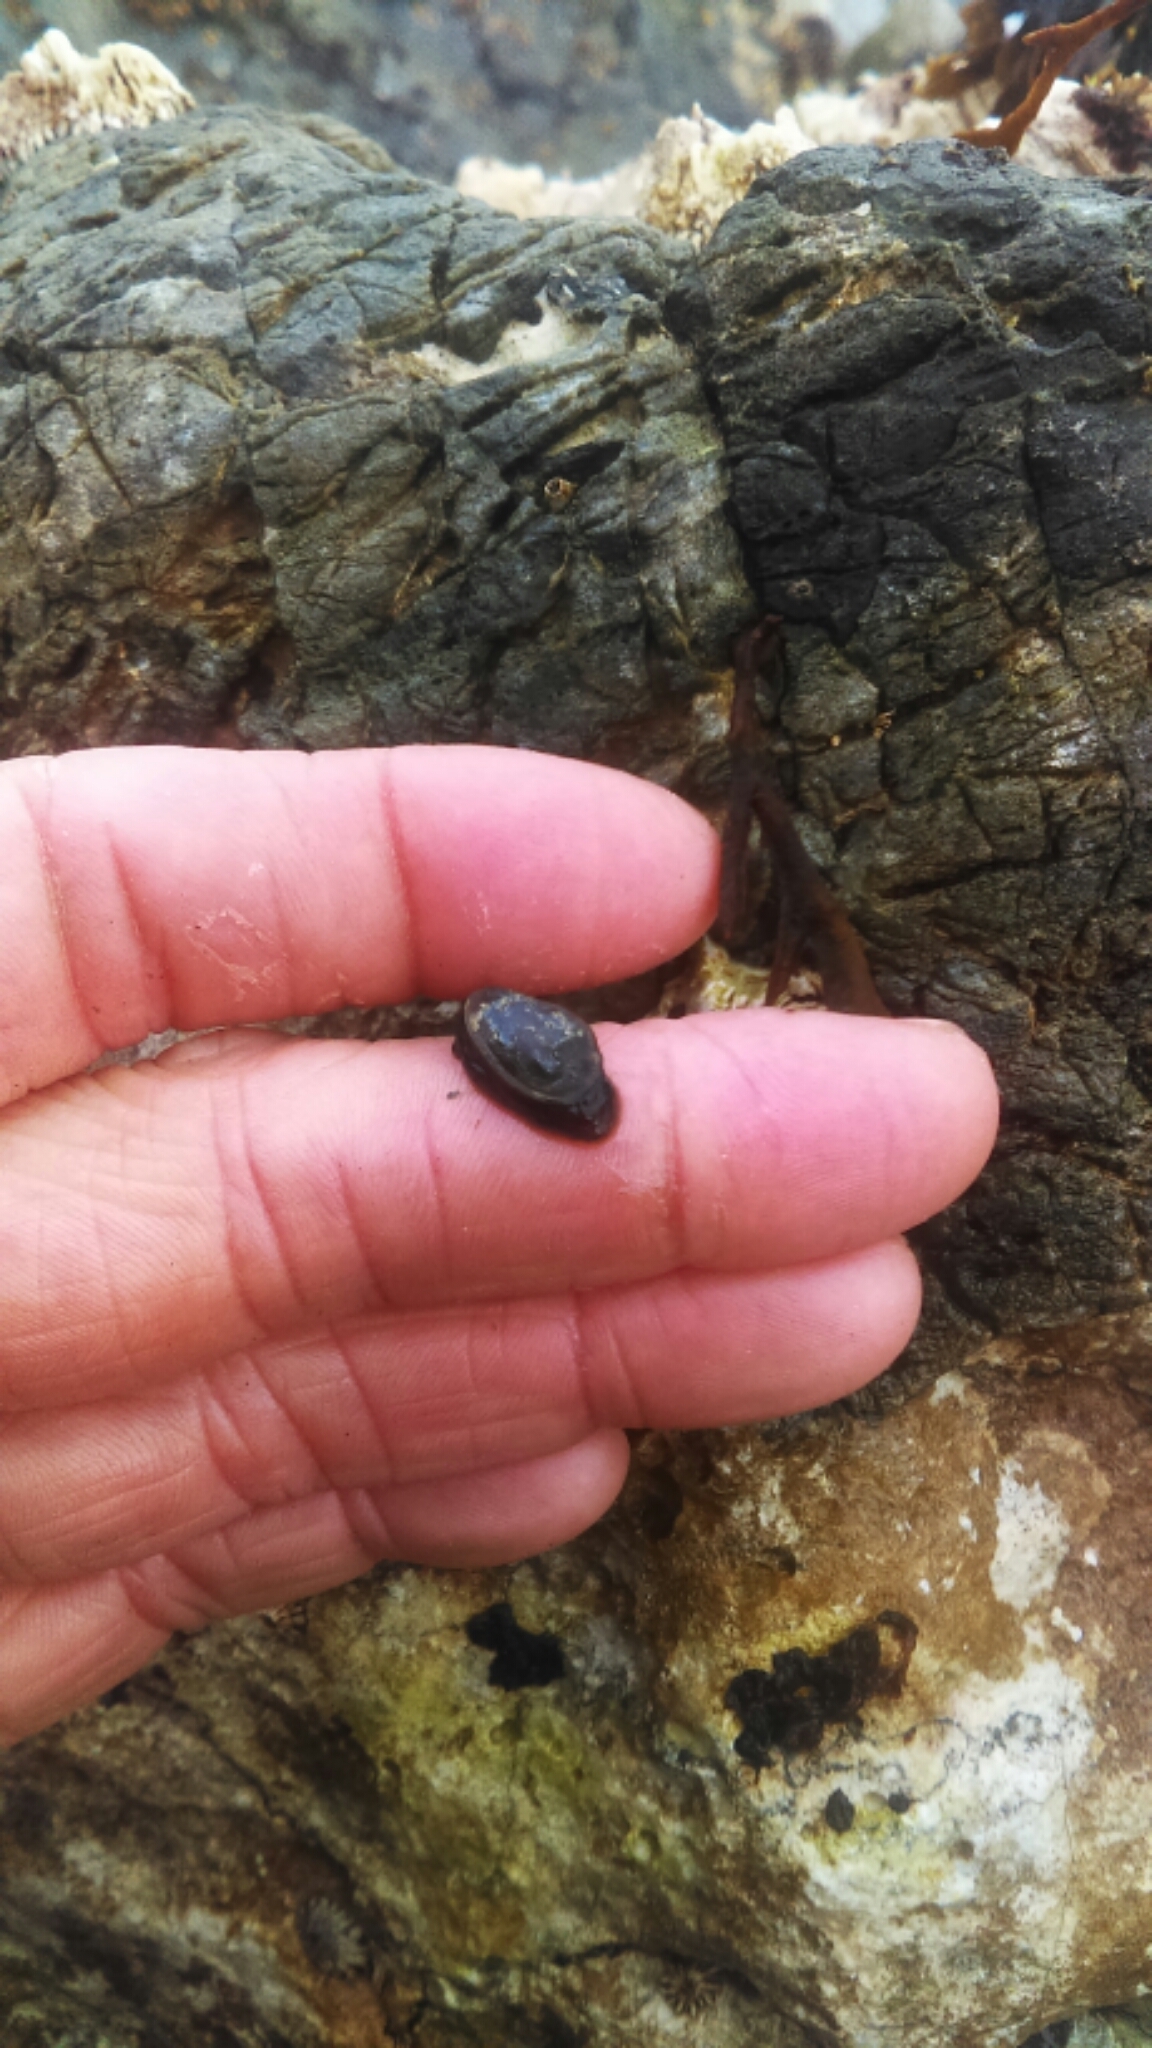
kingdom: Animalia
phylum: Mollusca
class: Gastropoda
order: Siphonariida
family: Siphonariidae
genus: Siphonaria
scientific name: Siphonaria thersites
